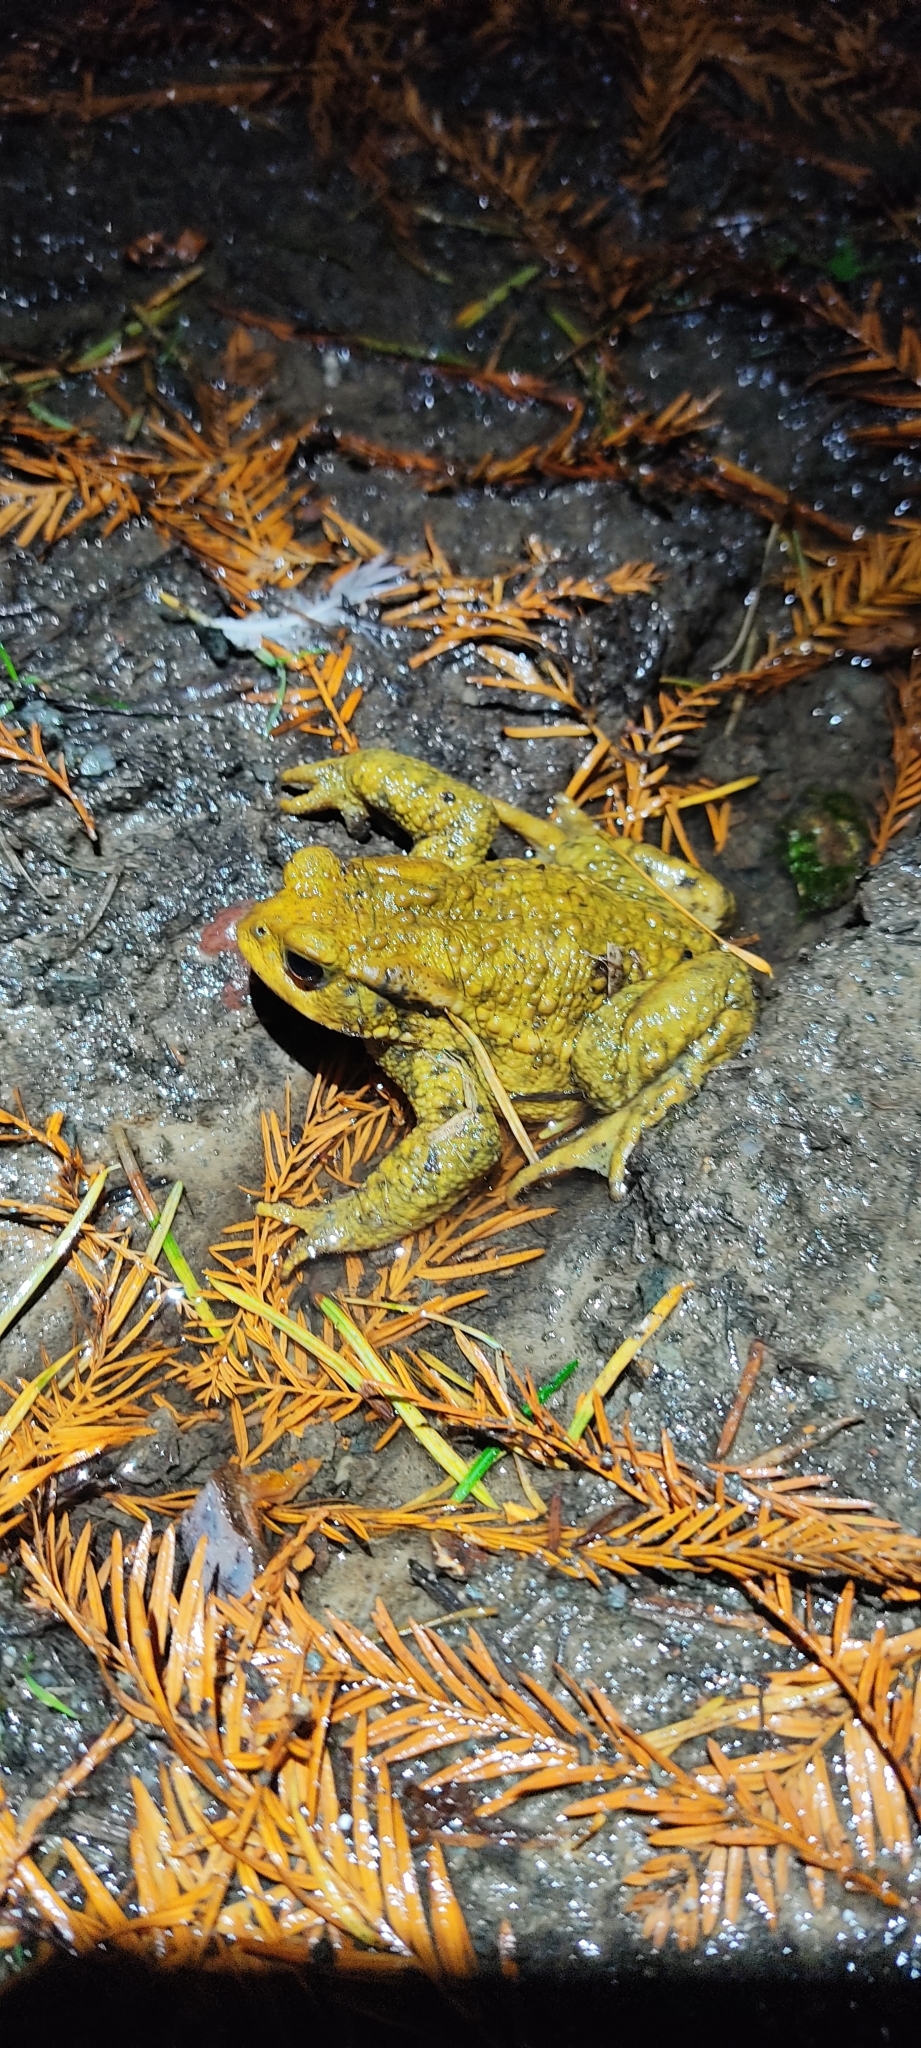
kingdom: Animalia
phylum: Chordata
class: Amphibia
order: Anura
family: Bufonidae
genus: Bufo
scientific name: Bufo spinosus
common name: Western common toad
